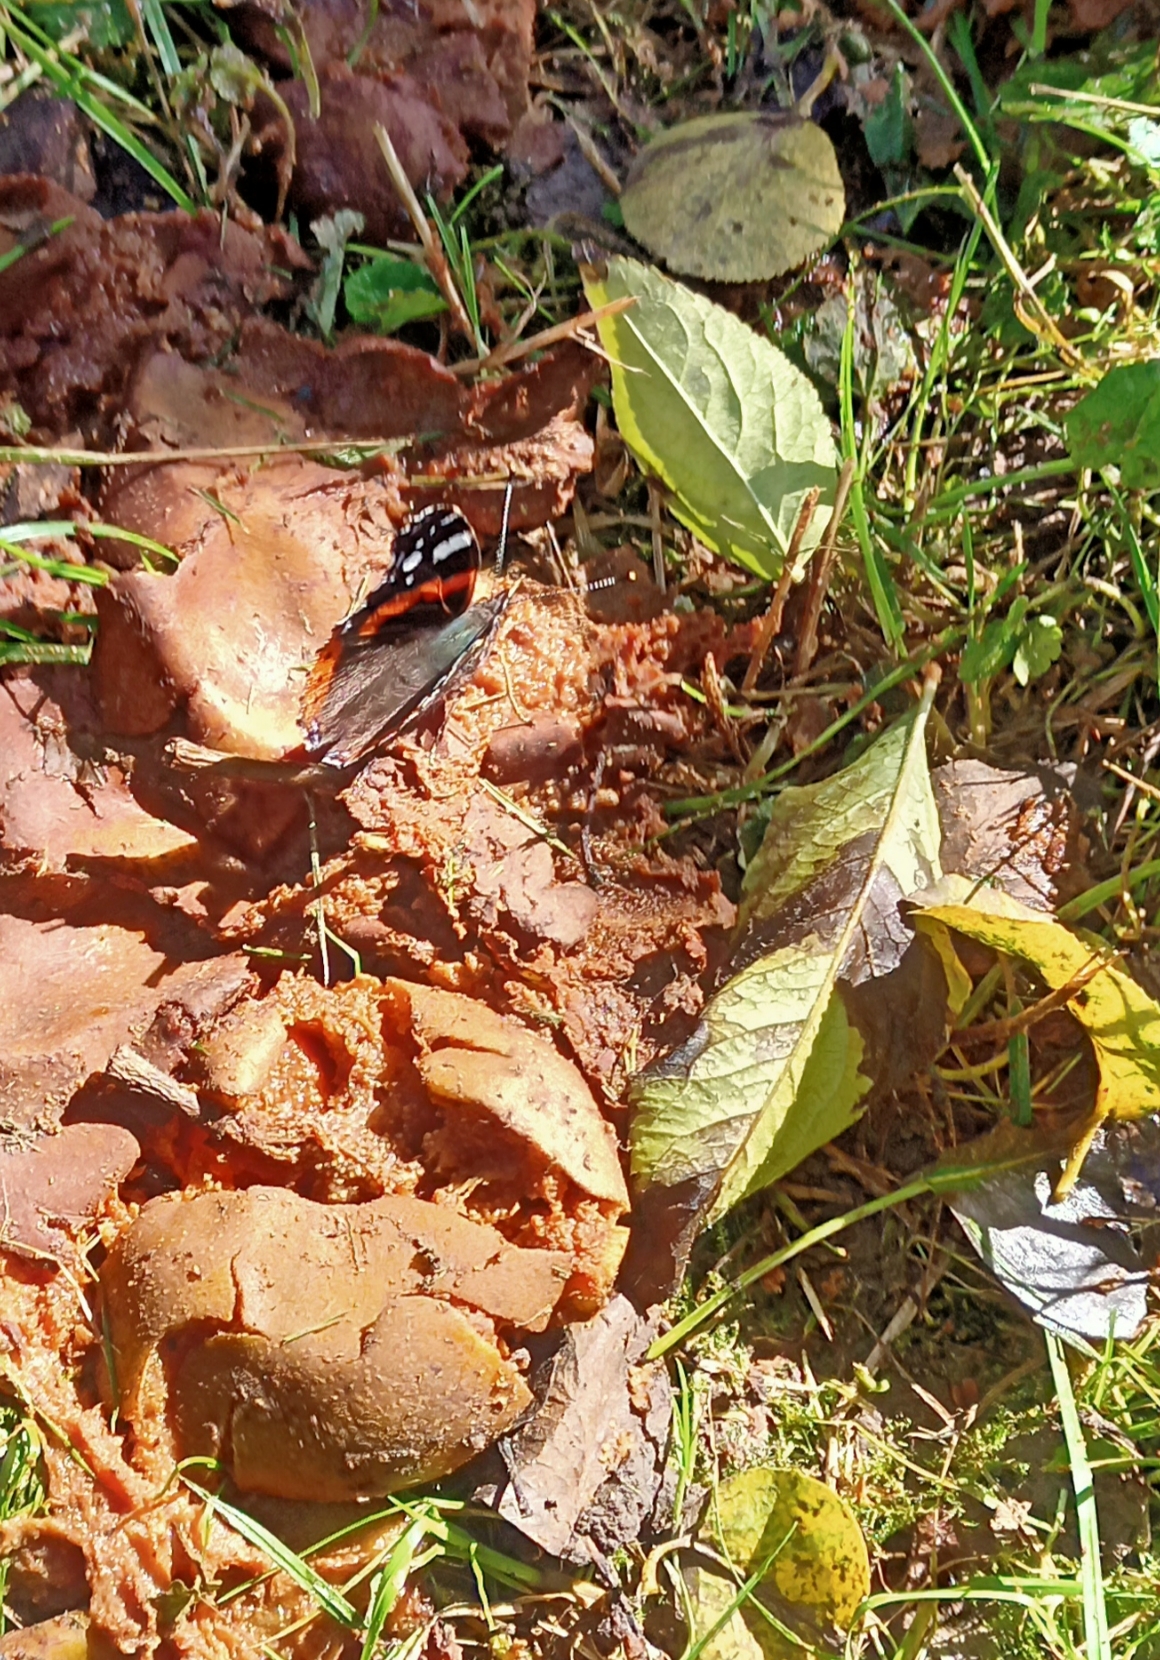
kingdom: Animalia
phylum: Arthropoda
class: Insecta
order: Lepidoptera
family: Nymphalidae
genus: Vanessa
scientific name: Vanessa atalanta
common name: Red admiral
